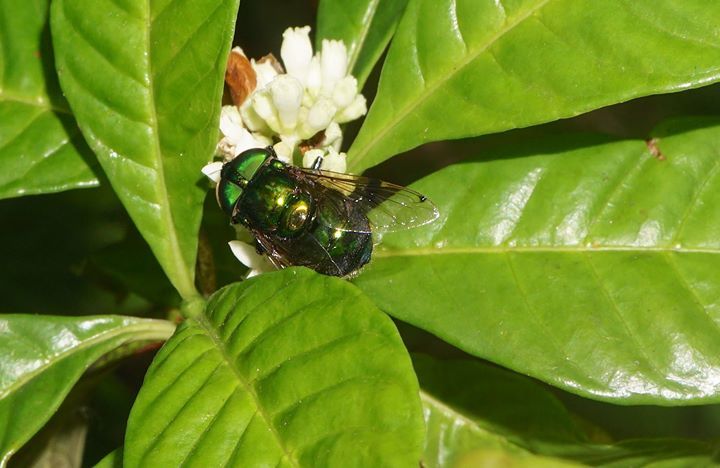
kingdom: Animalia
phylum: Arthropoda
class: Insecta
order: Diptera
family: Syrphidae
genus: Ornidia
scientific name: Ornidia obesa
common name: Syrphid fly
